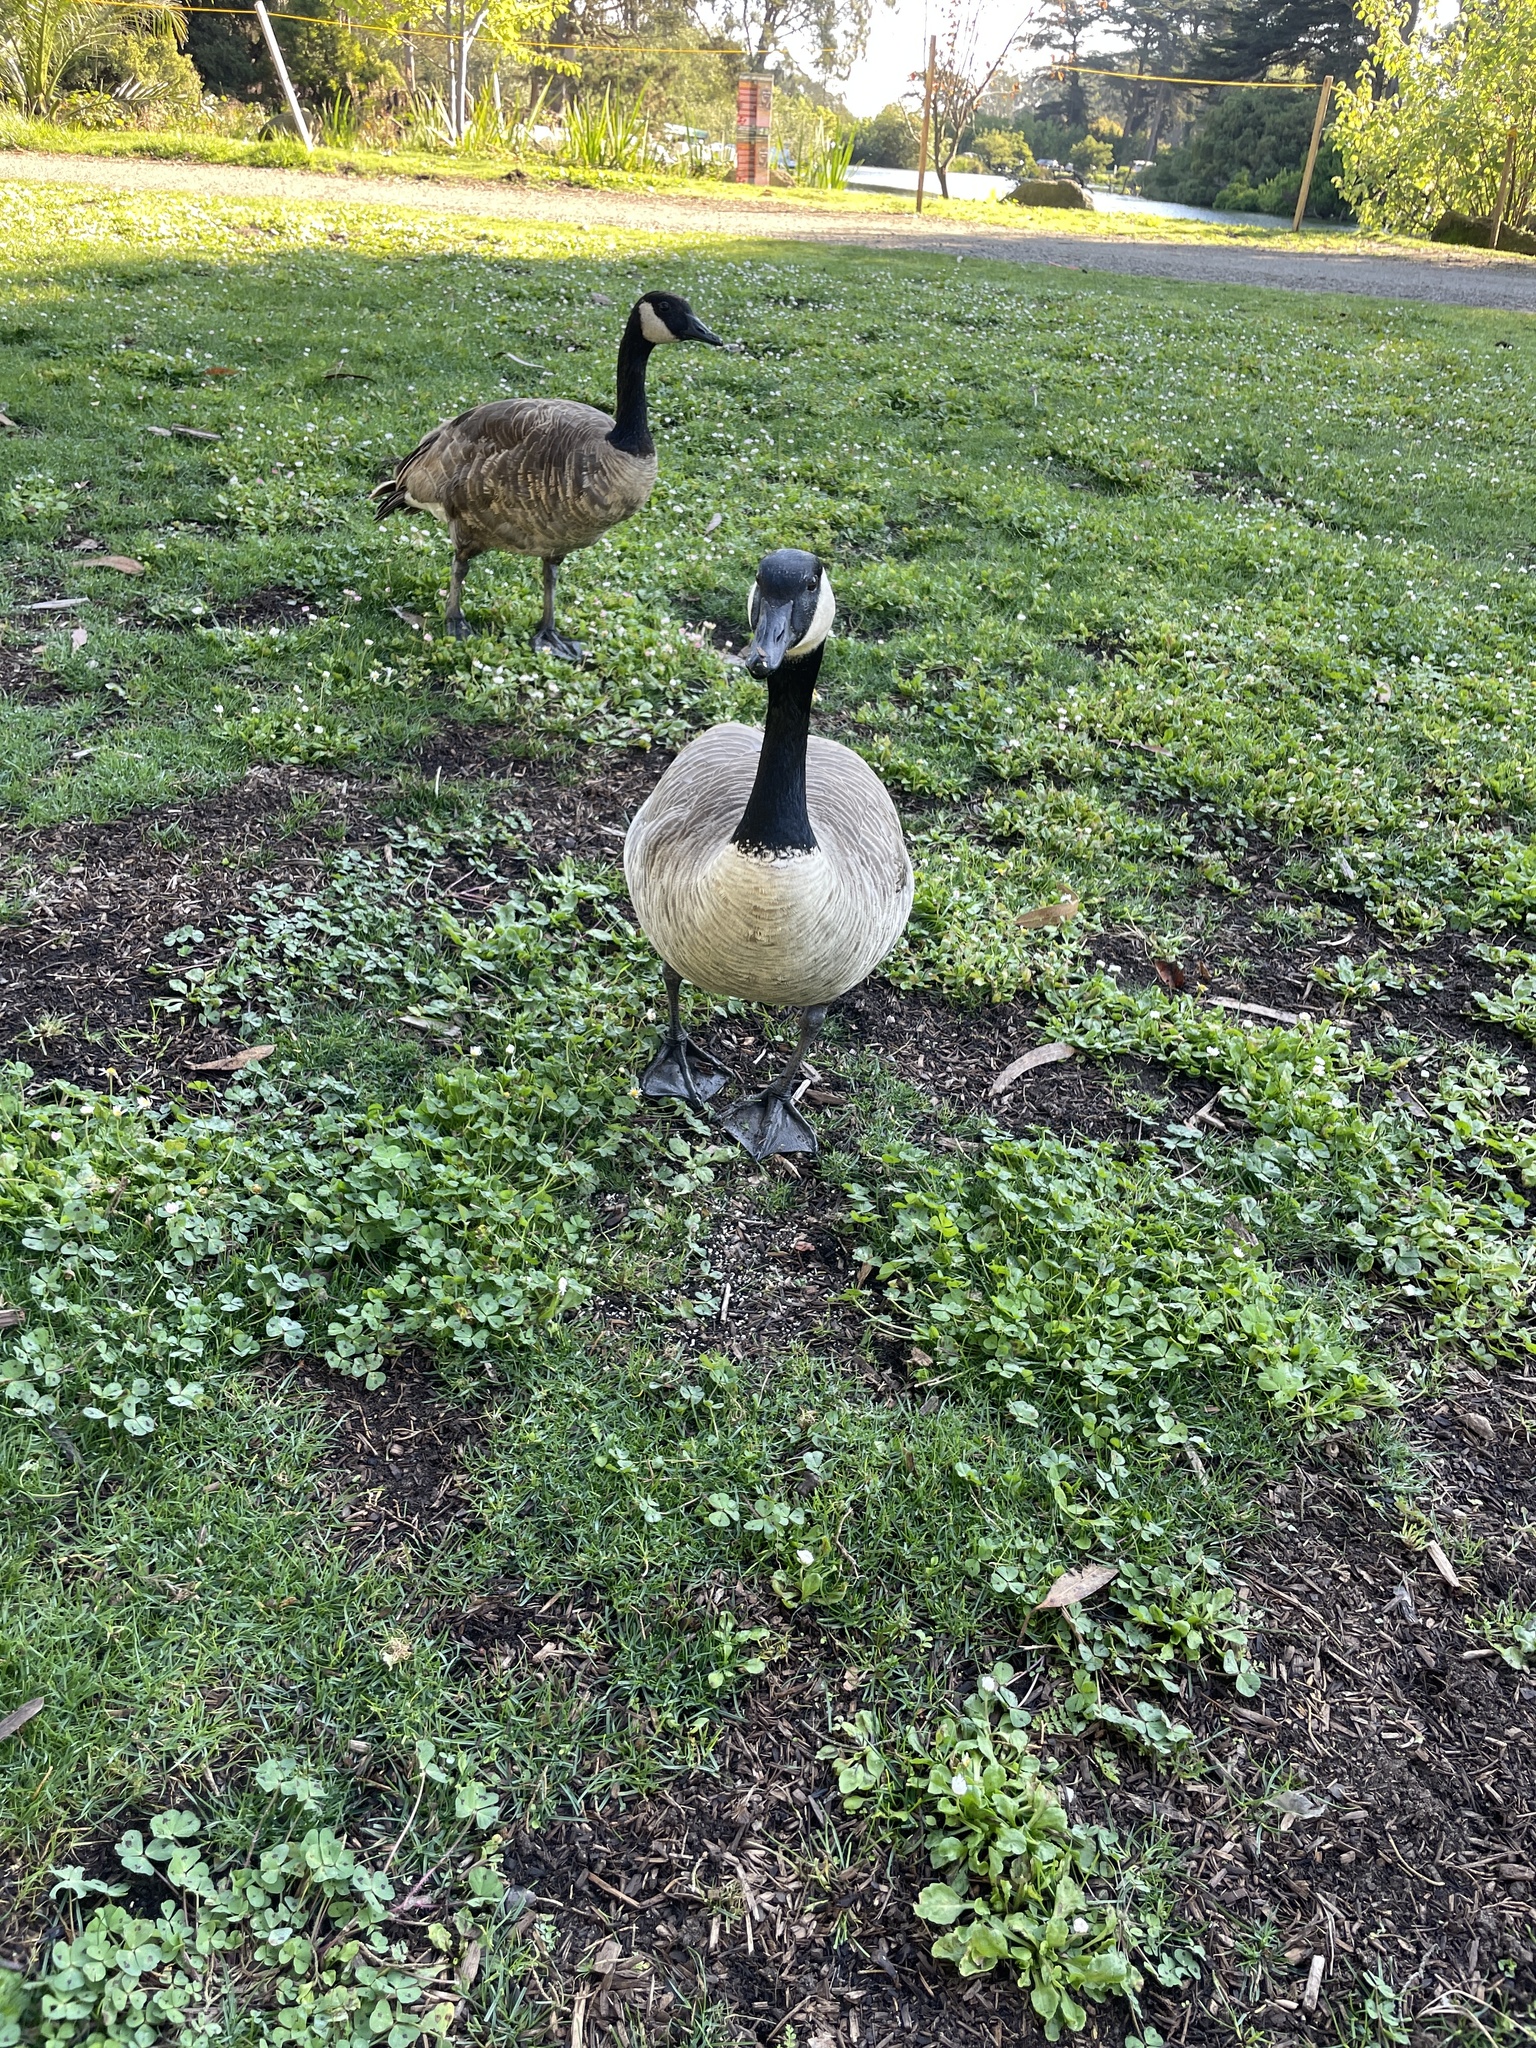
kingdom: Animalia
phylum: Chordata
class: Aves
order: Anseriformes
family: Anatidae
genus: Branta
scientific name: Branta canadensis
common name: Canada goose
